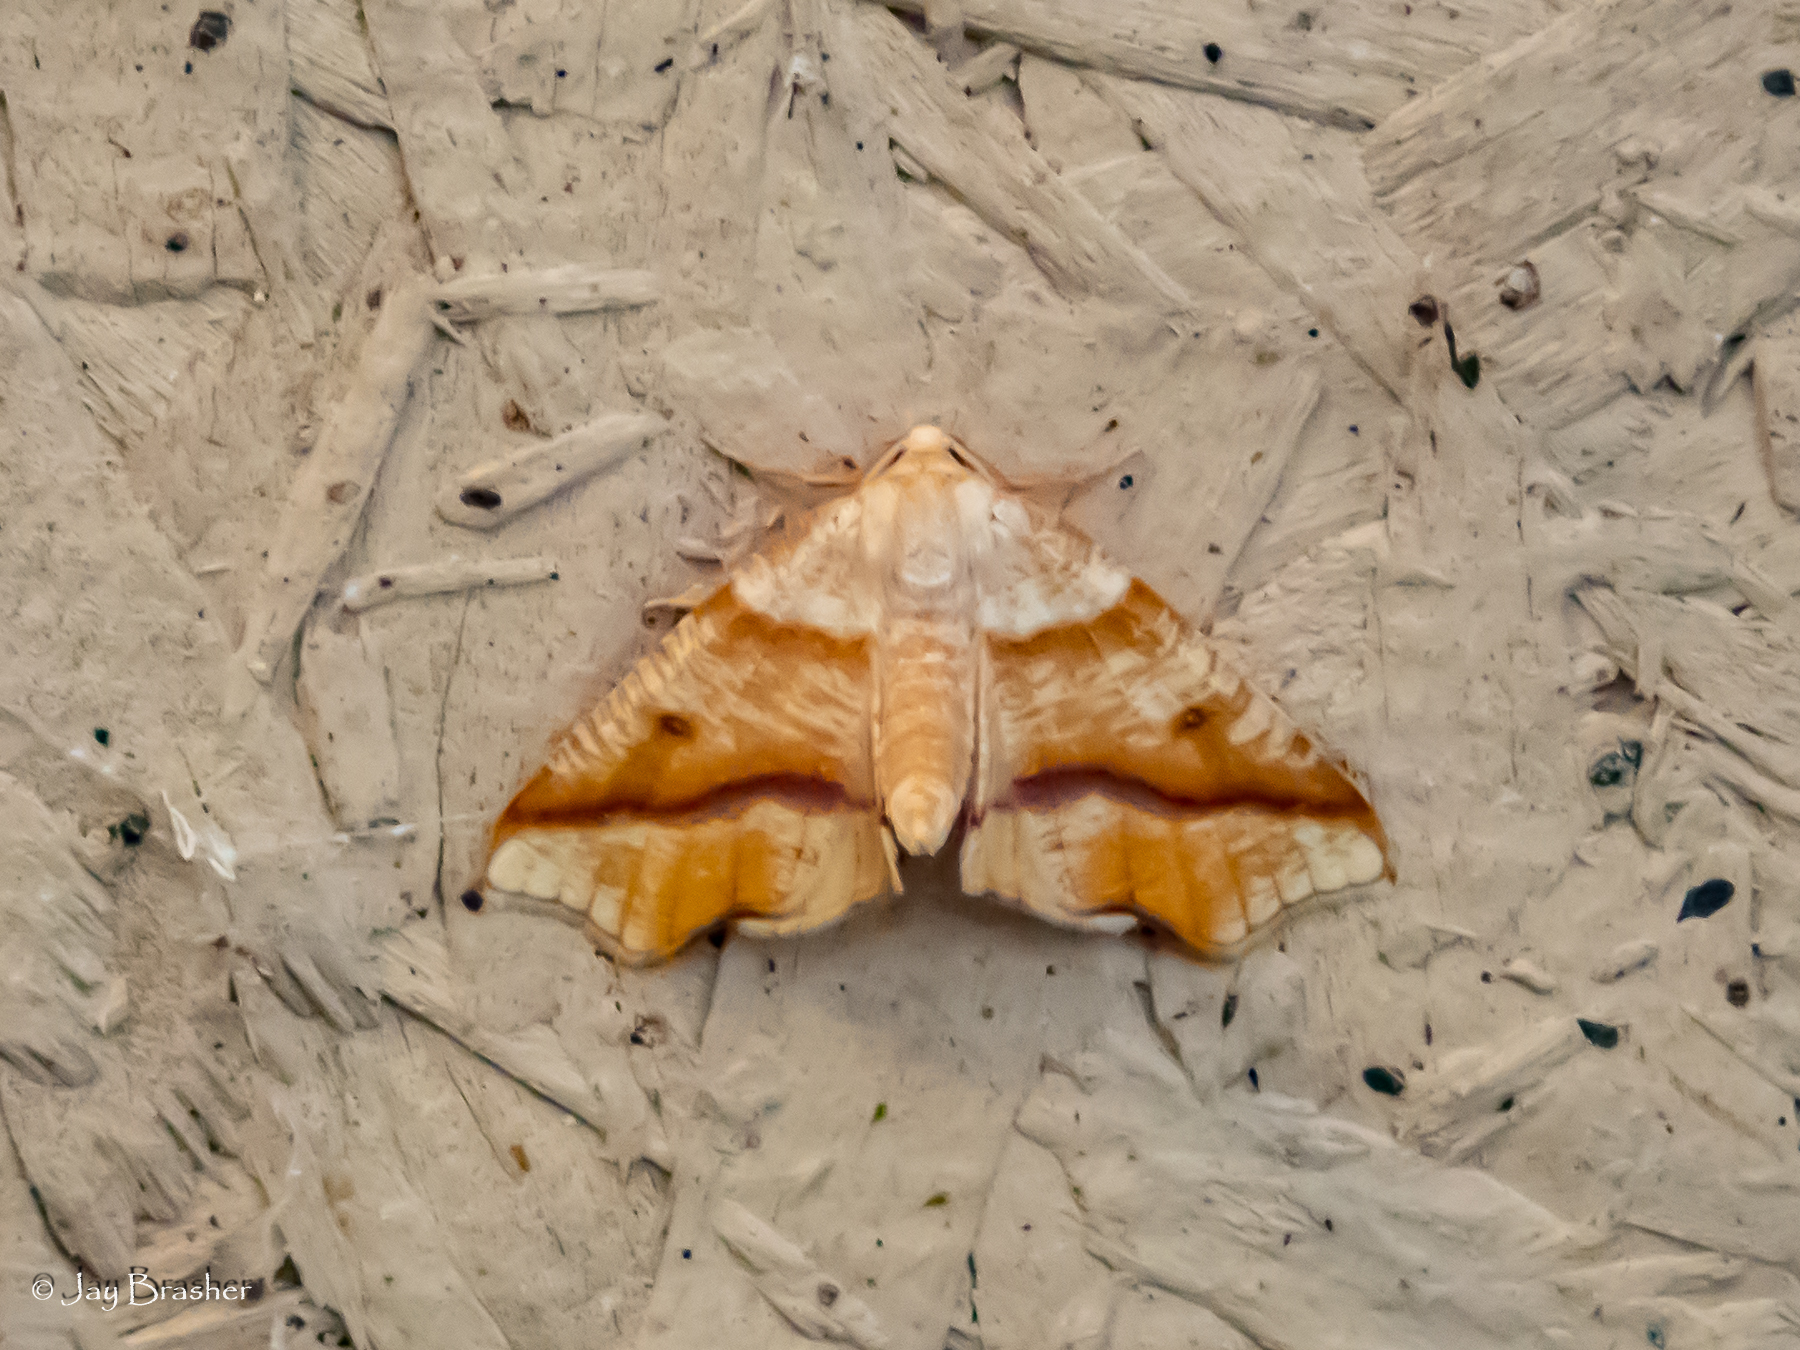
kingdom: Animalia
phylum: Arthropoda
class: Insecta
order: Lepidoptera
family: Geometridae
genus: Plagodis
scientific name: Plagodis alcoolaria
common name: Hollow-spotted plagodis
